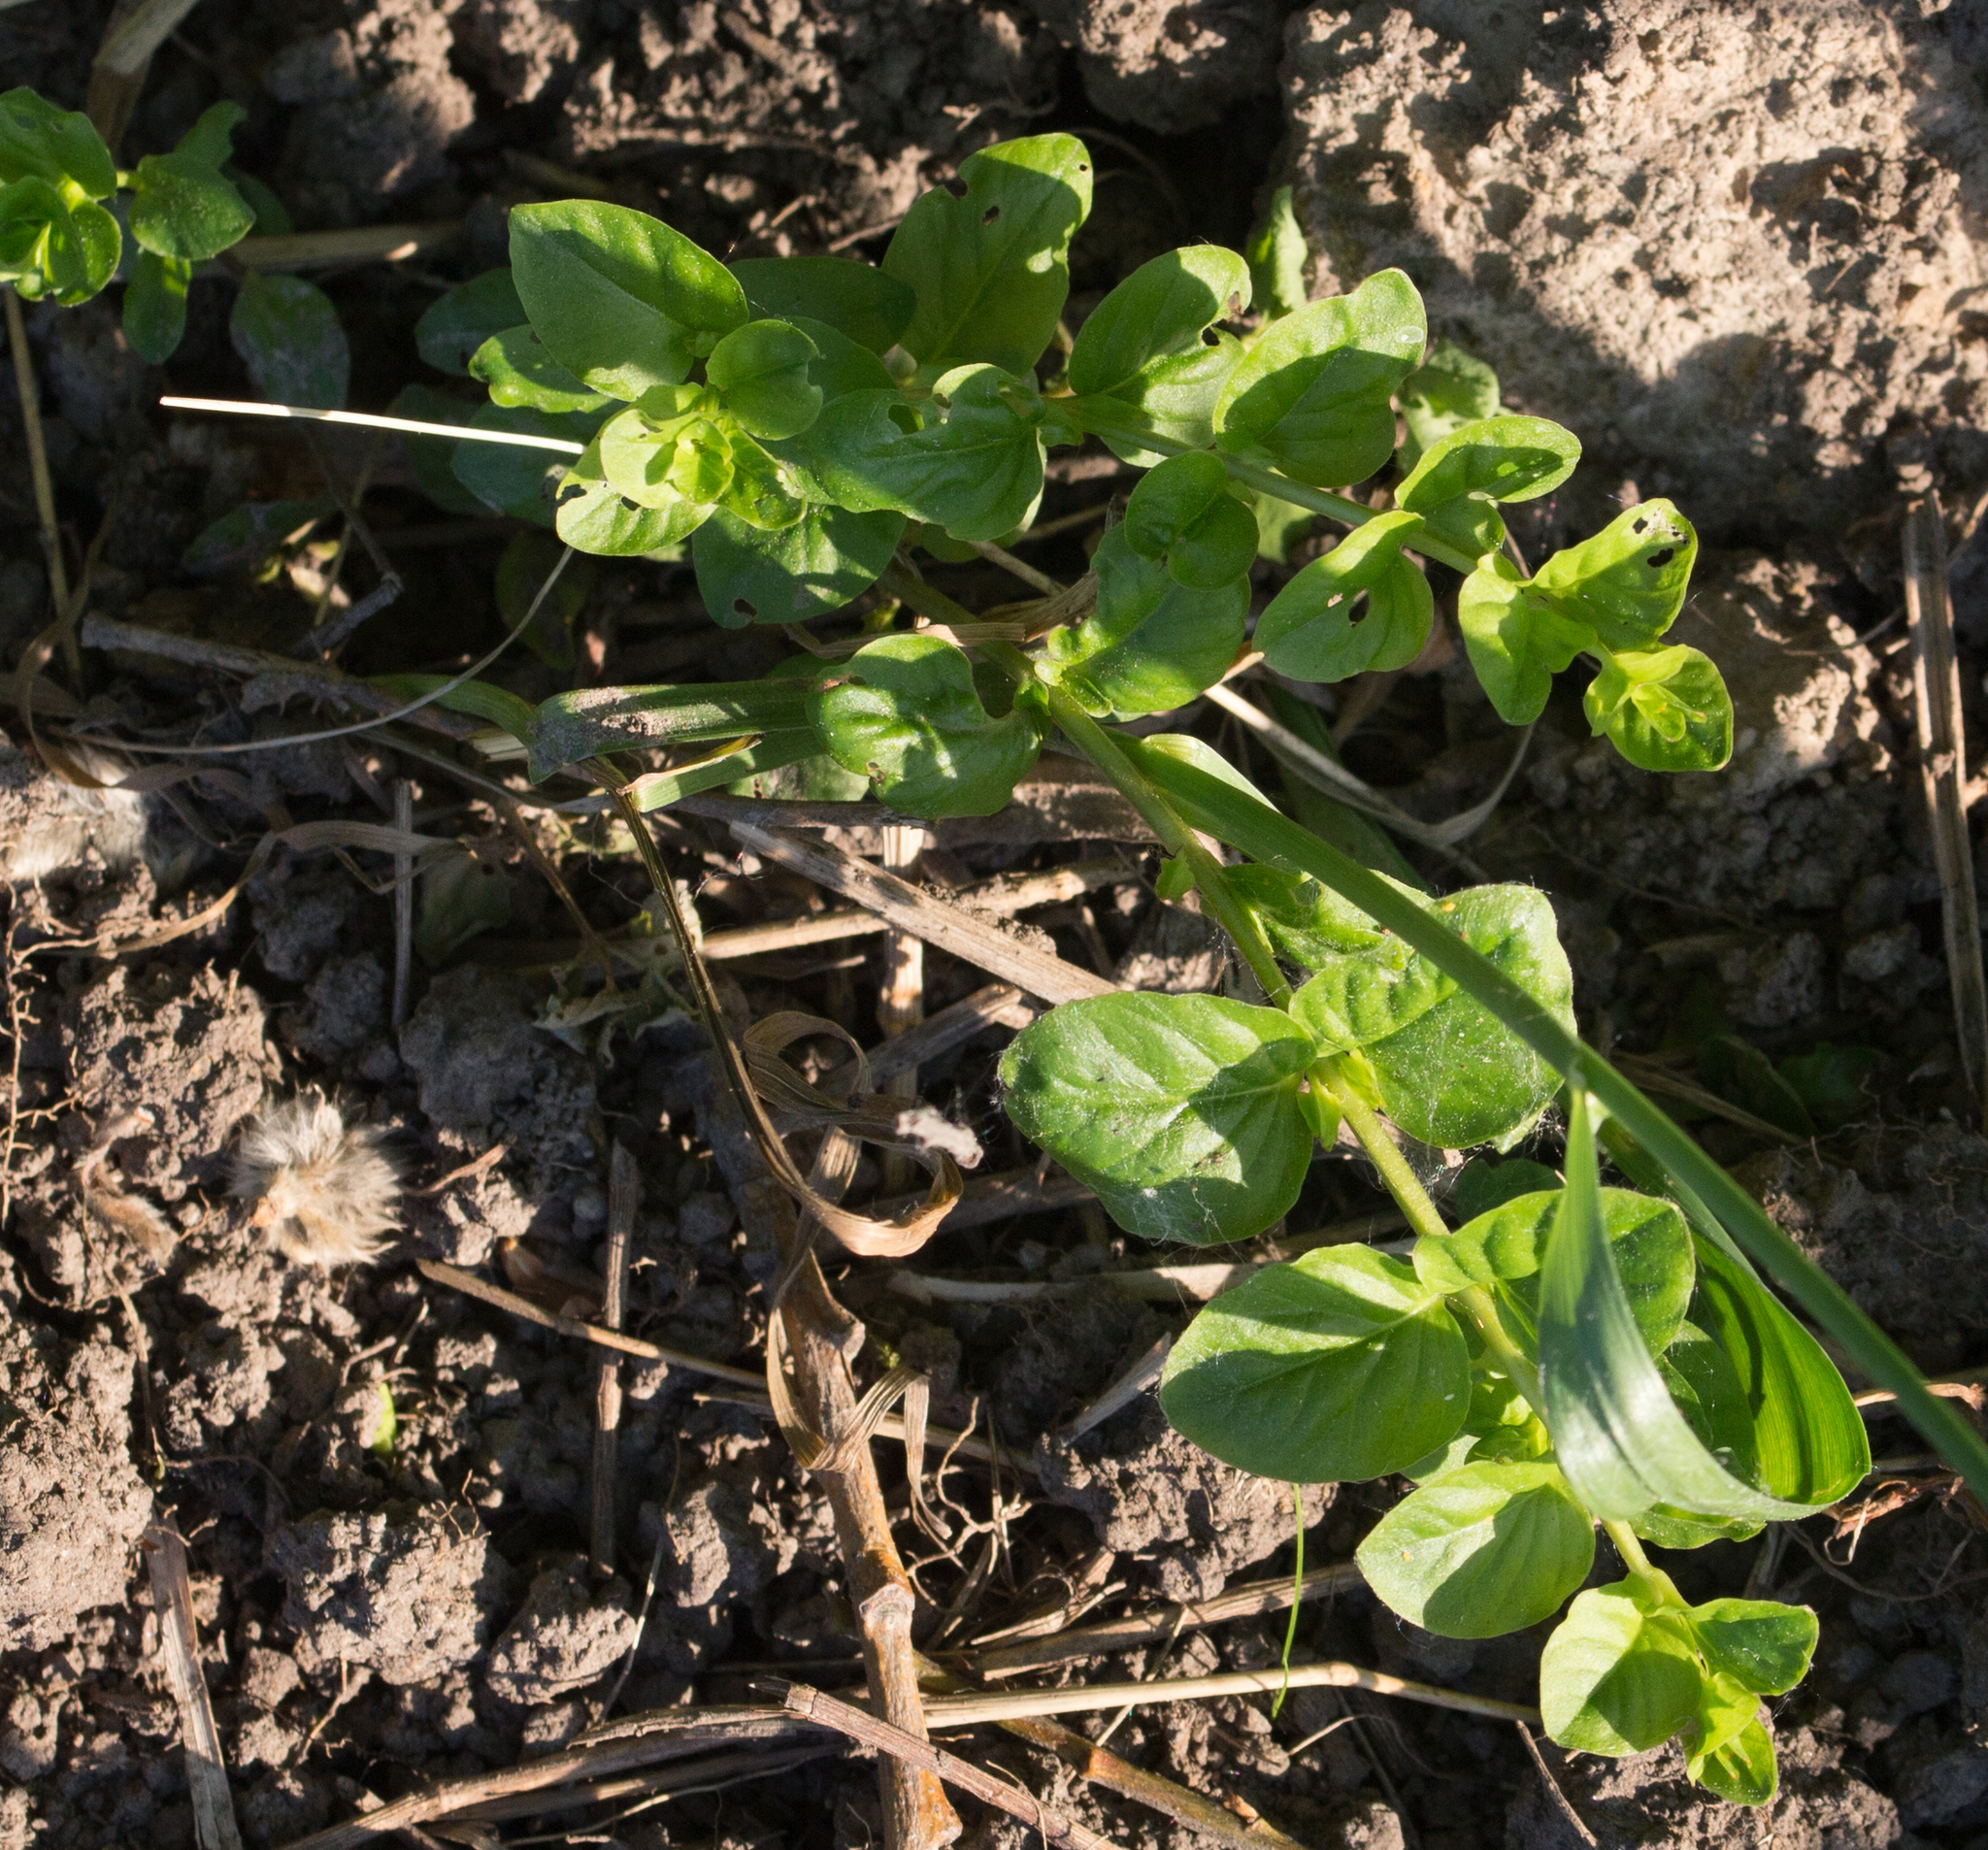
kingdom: Plantae
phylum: Tracheophyta
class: Magnoliopsida
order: Ericales
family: Primulaceae
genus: Lysimachia
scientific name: Lysimachia nummularia
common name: Moneywort
